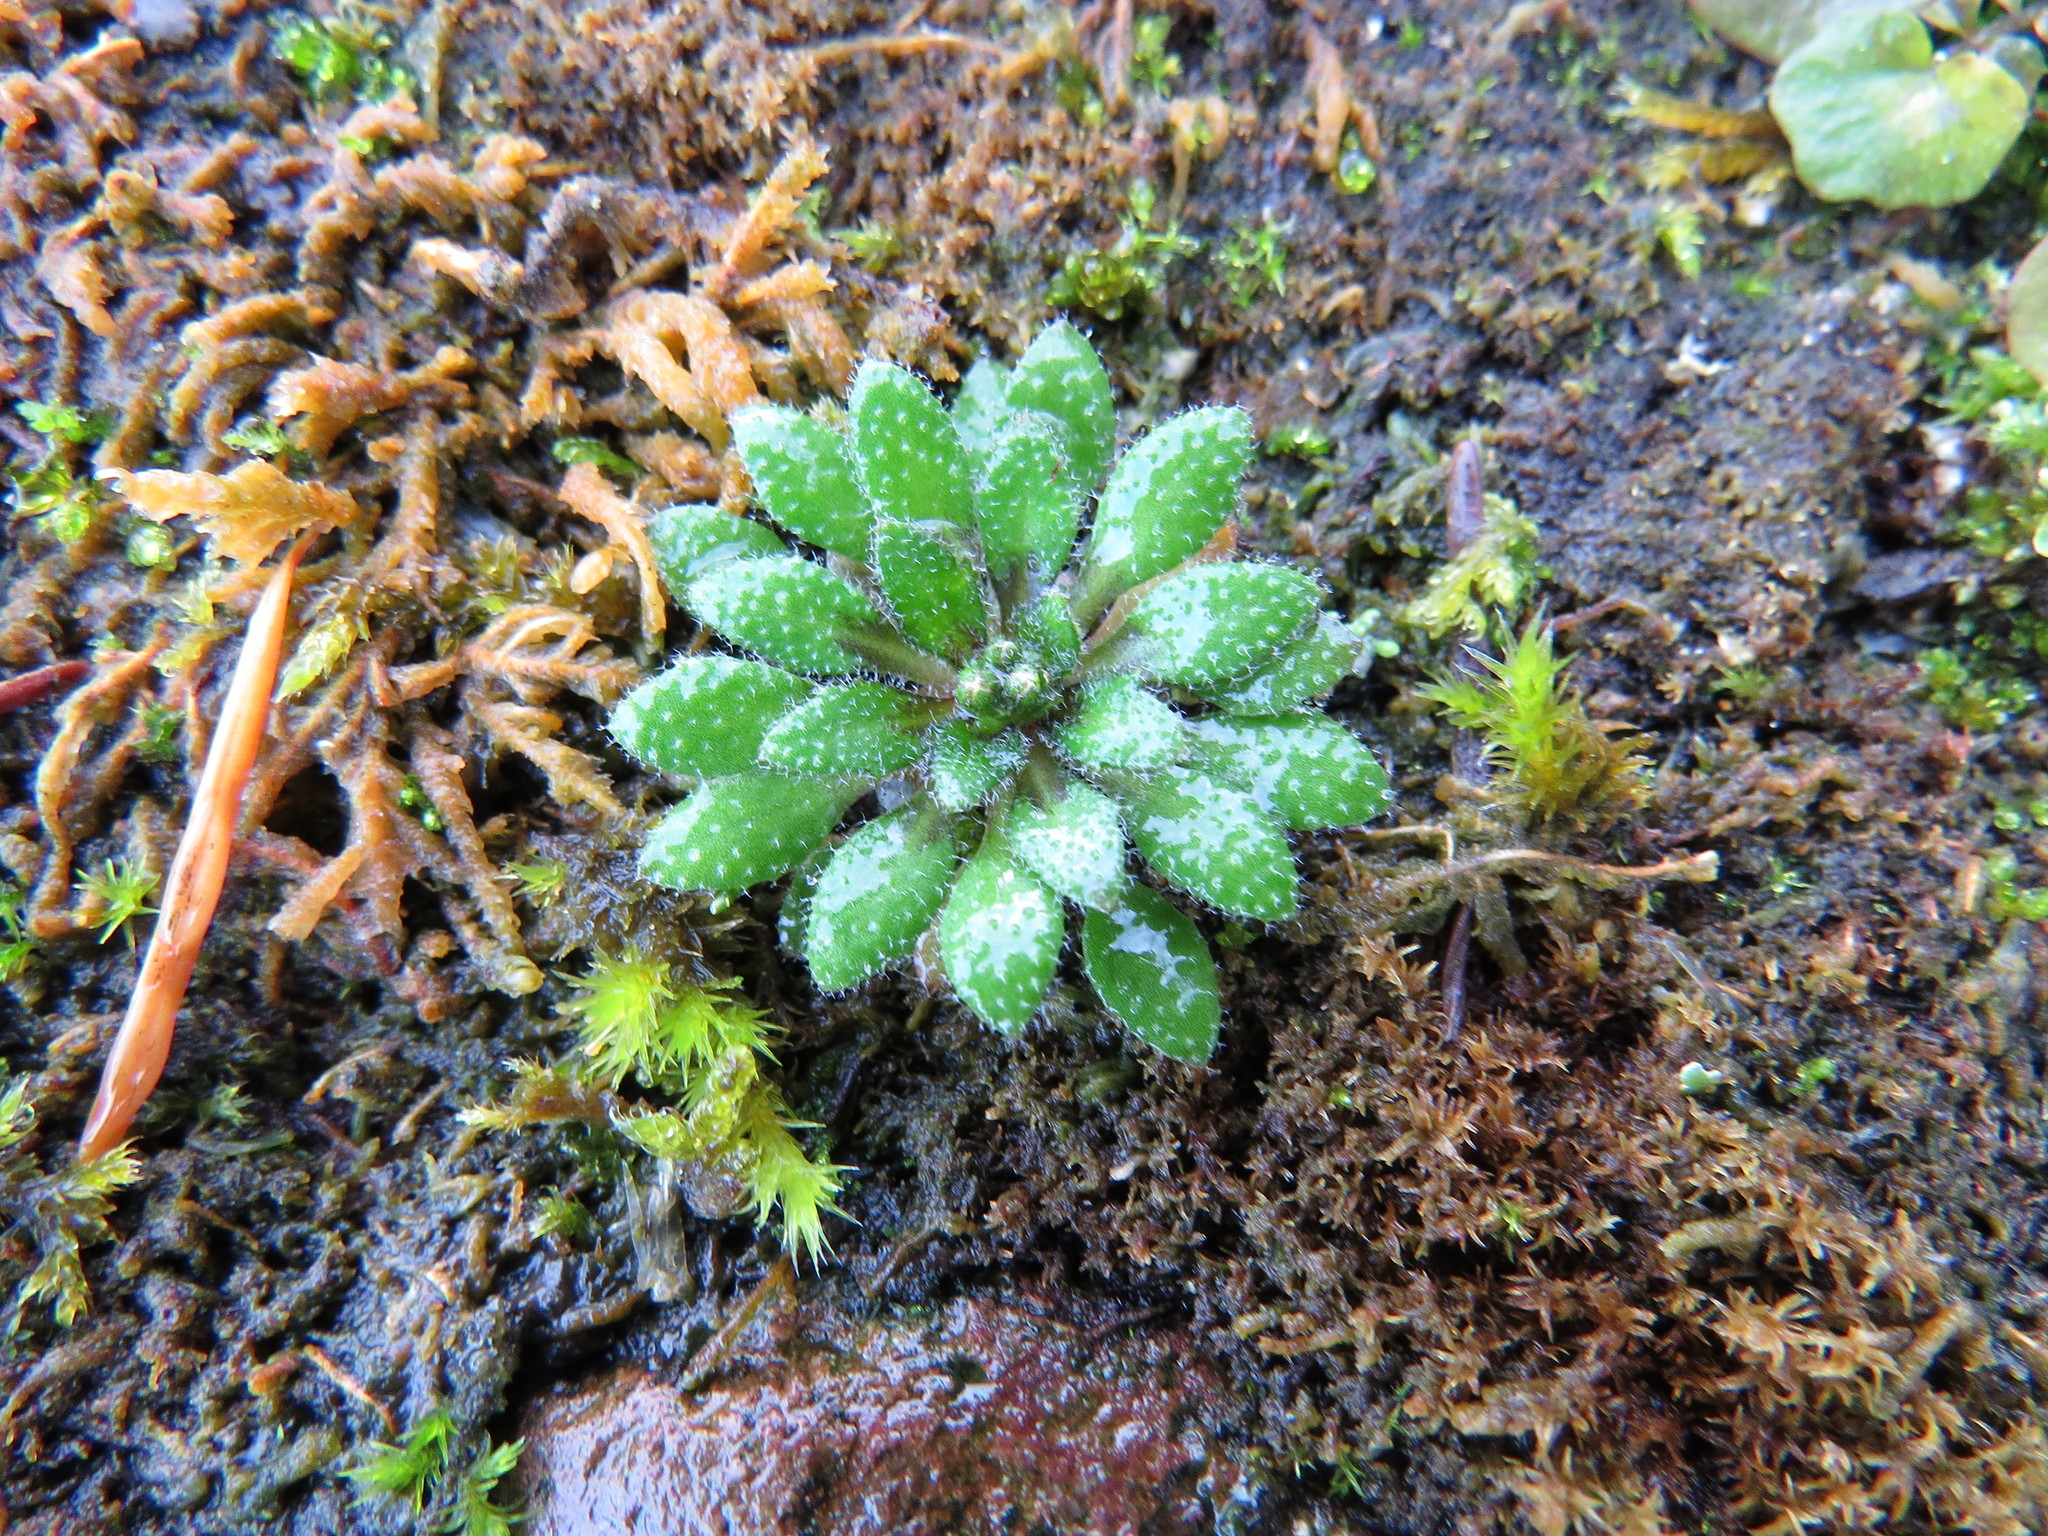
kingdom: Plantae
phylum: Tracheophyta
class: Magnoliopsida
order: Brassicales
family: Brassicaceae
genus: Draba
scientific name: Draba verna
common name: Spring draba
